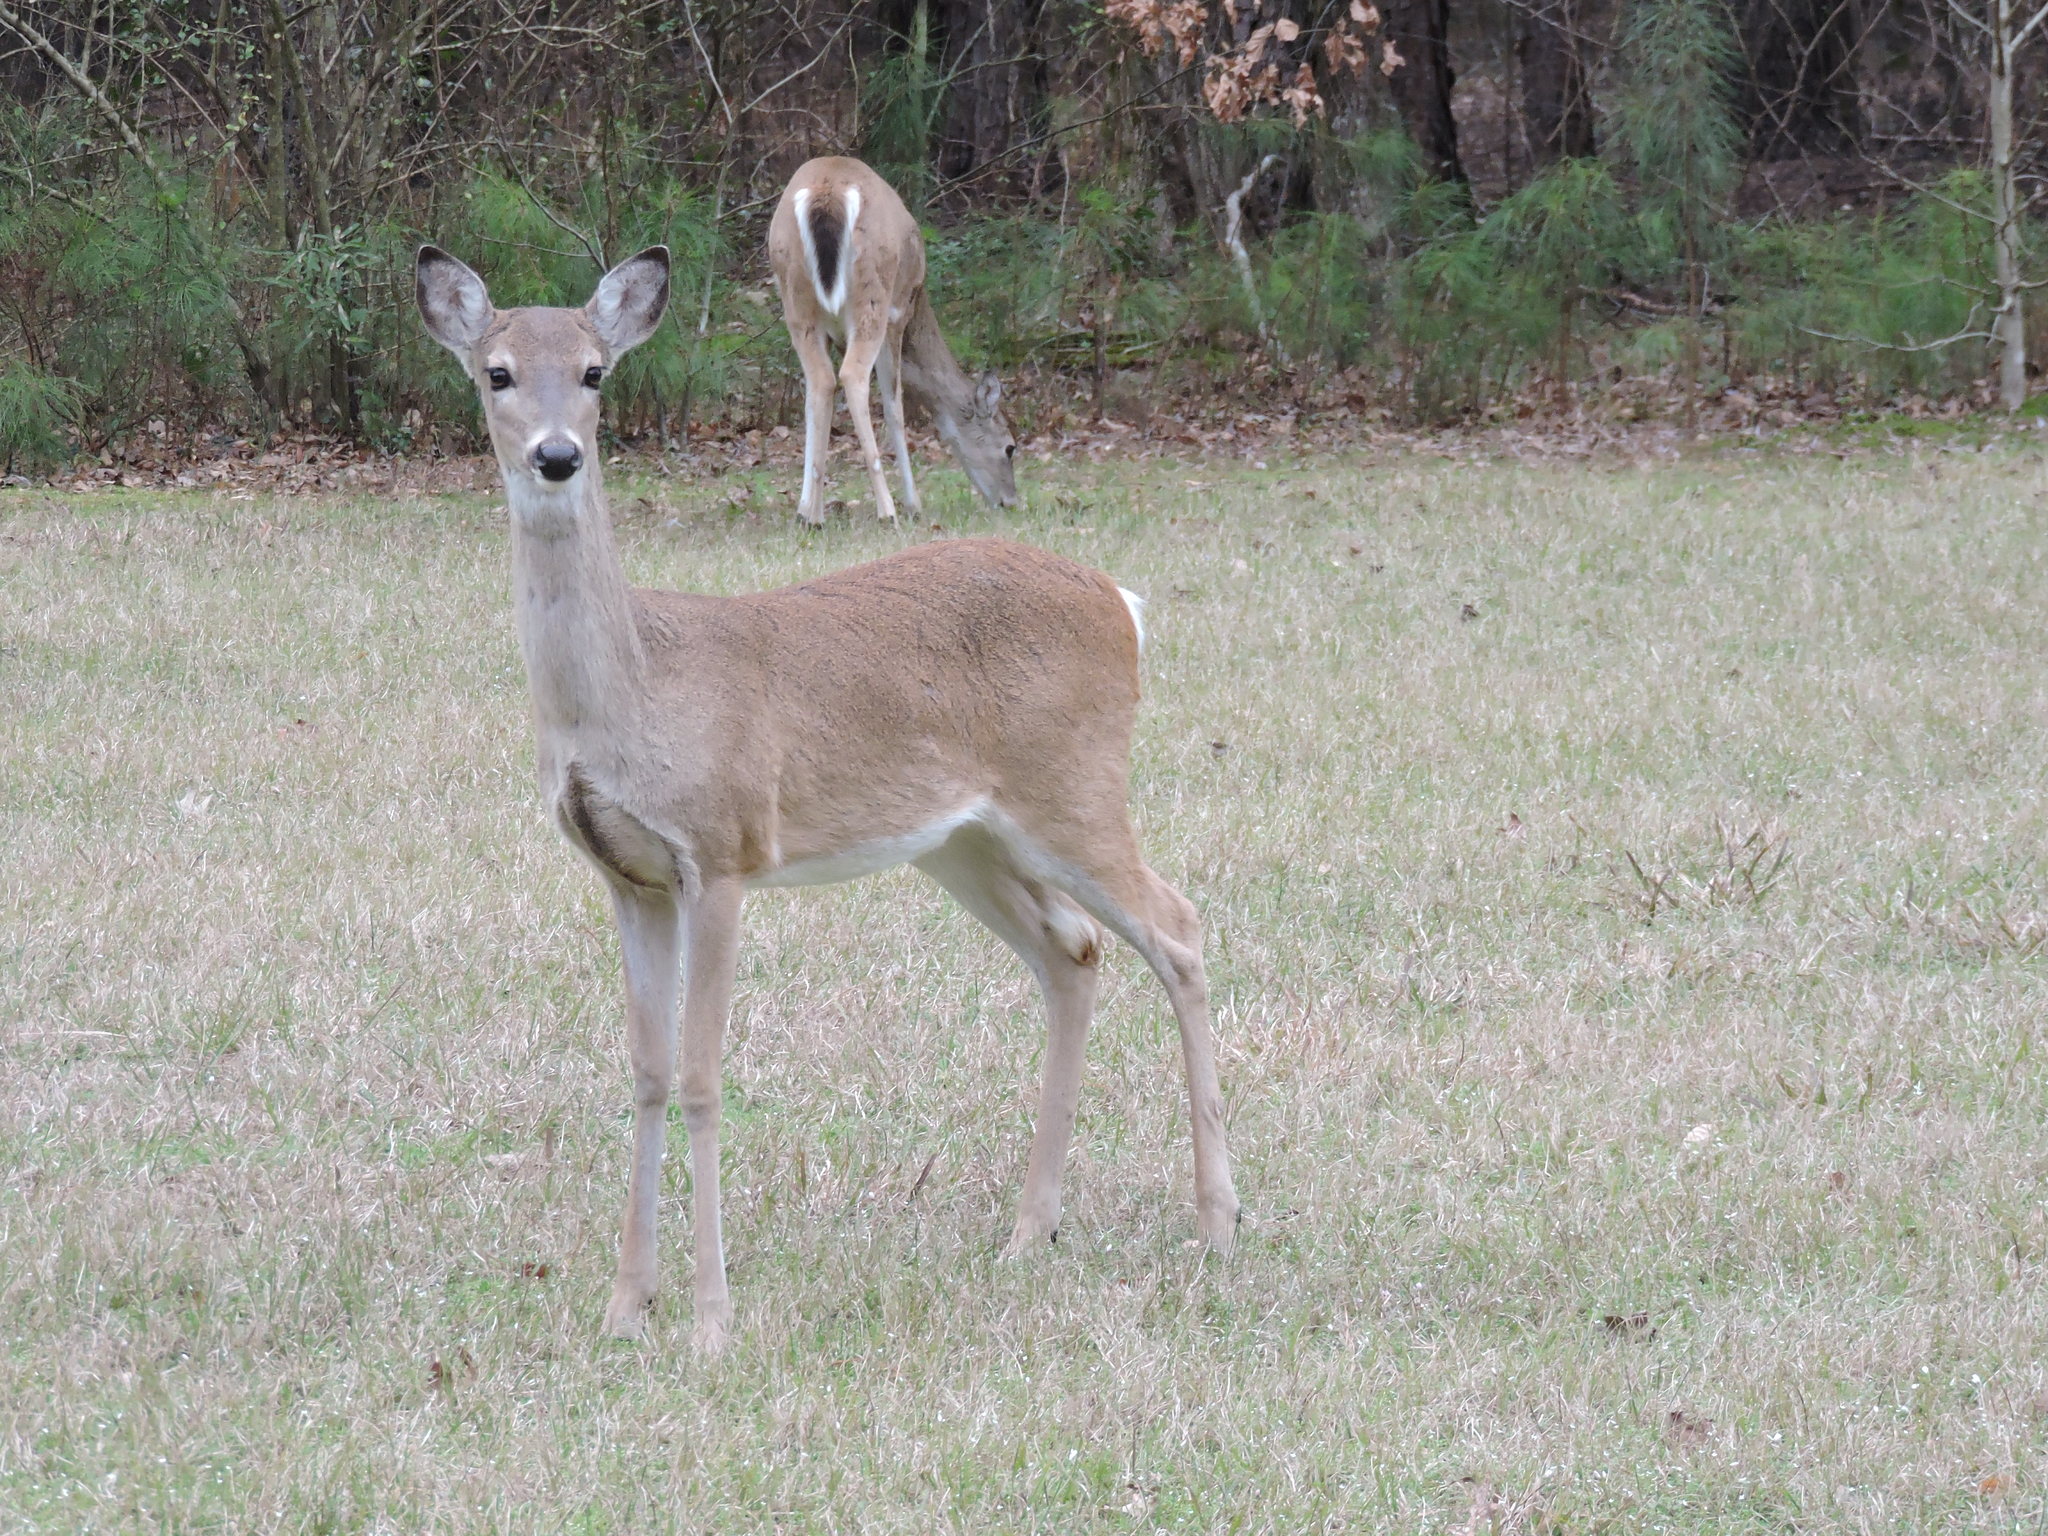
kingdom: Animalia
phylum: Chordata
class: Mammalia
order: Artiodactyla
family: Cervidae
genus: Odocoileus
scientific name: Odocoileus virginianus
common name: White-tailed deer
